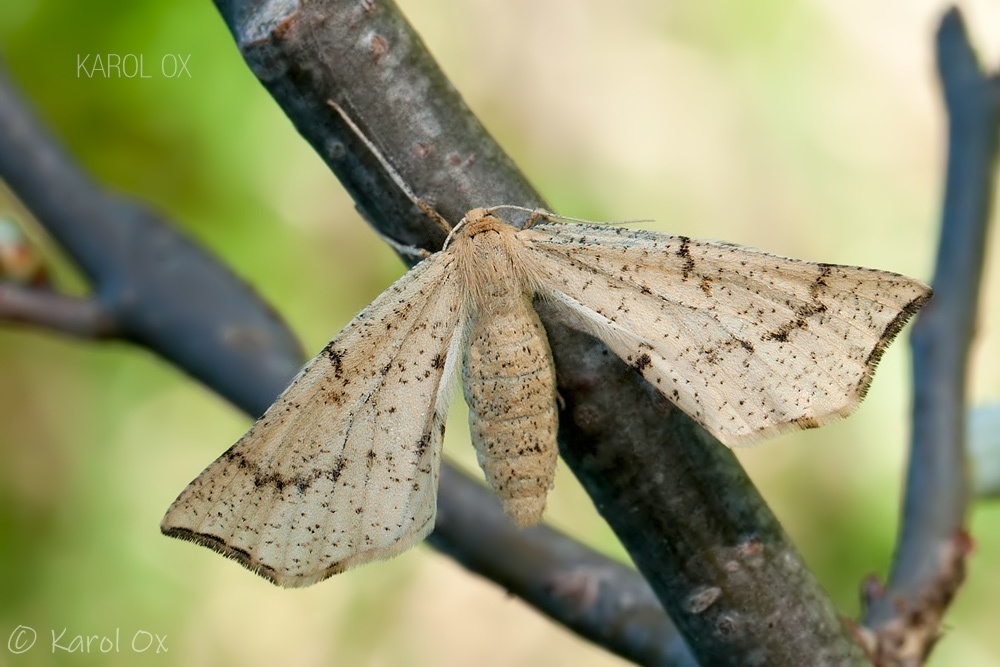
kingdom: Animalia
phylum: Arthropoda
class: Insecta
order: Lepidoptera
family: Geometridae
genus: Hypoxystis
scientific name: Hypoxystis pluviaria
